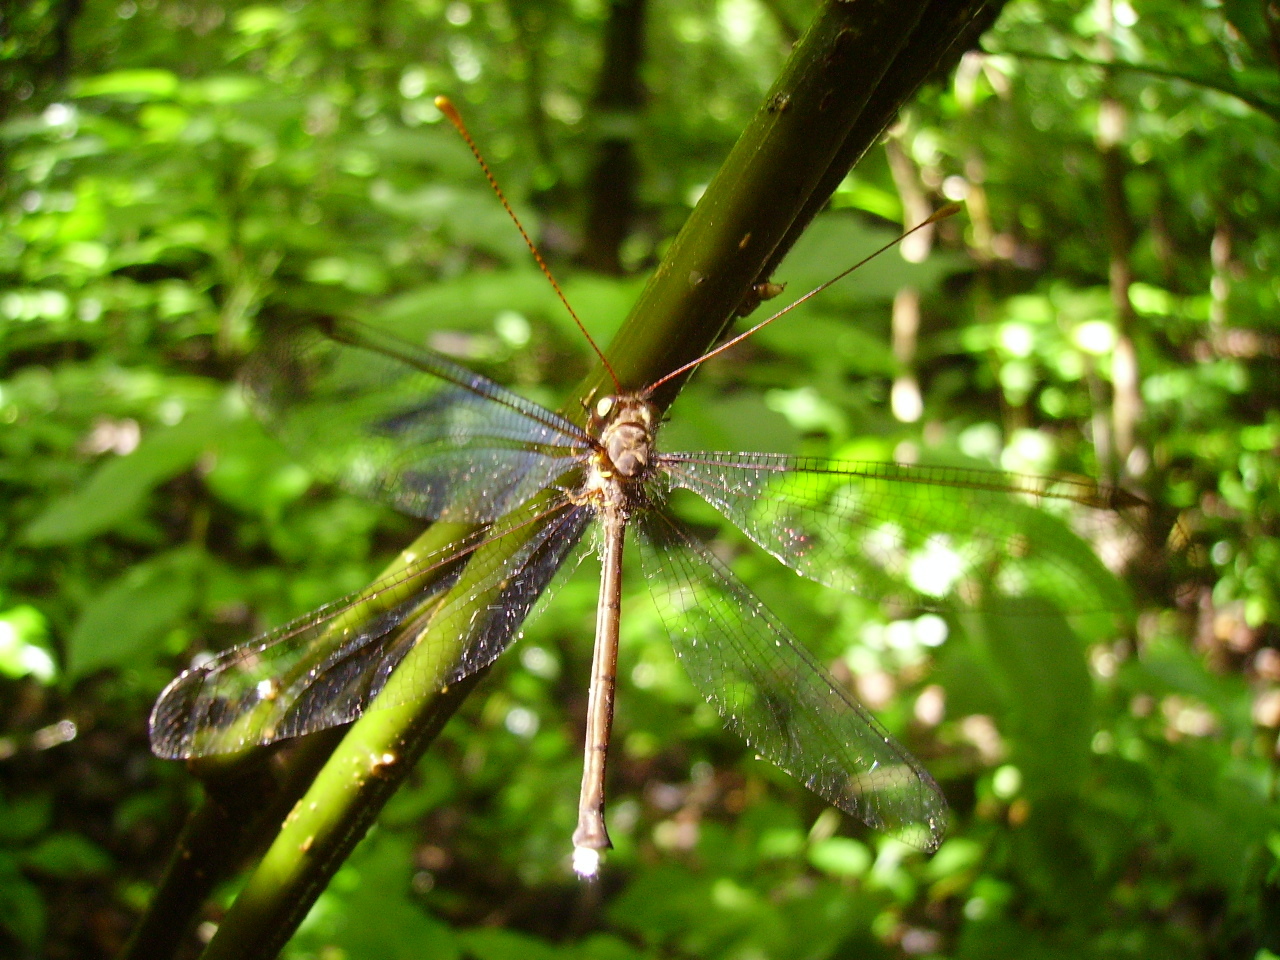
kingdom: Animalia
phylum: Arthropoda
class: Insecta
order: Neuroptera
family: Ascalaphidae
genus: Haploglenius
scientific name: Haploglenius flavicornis
